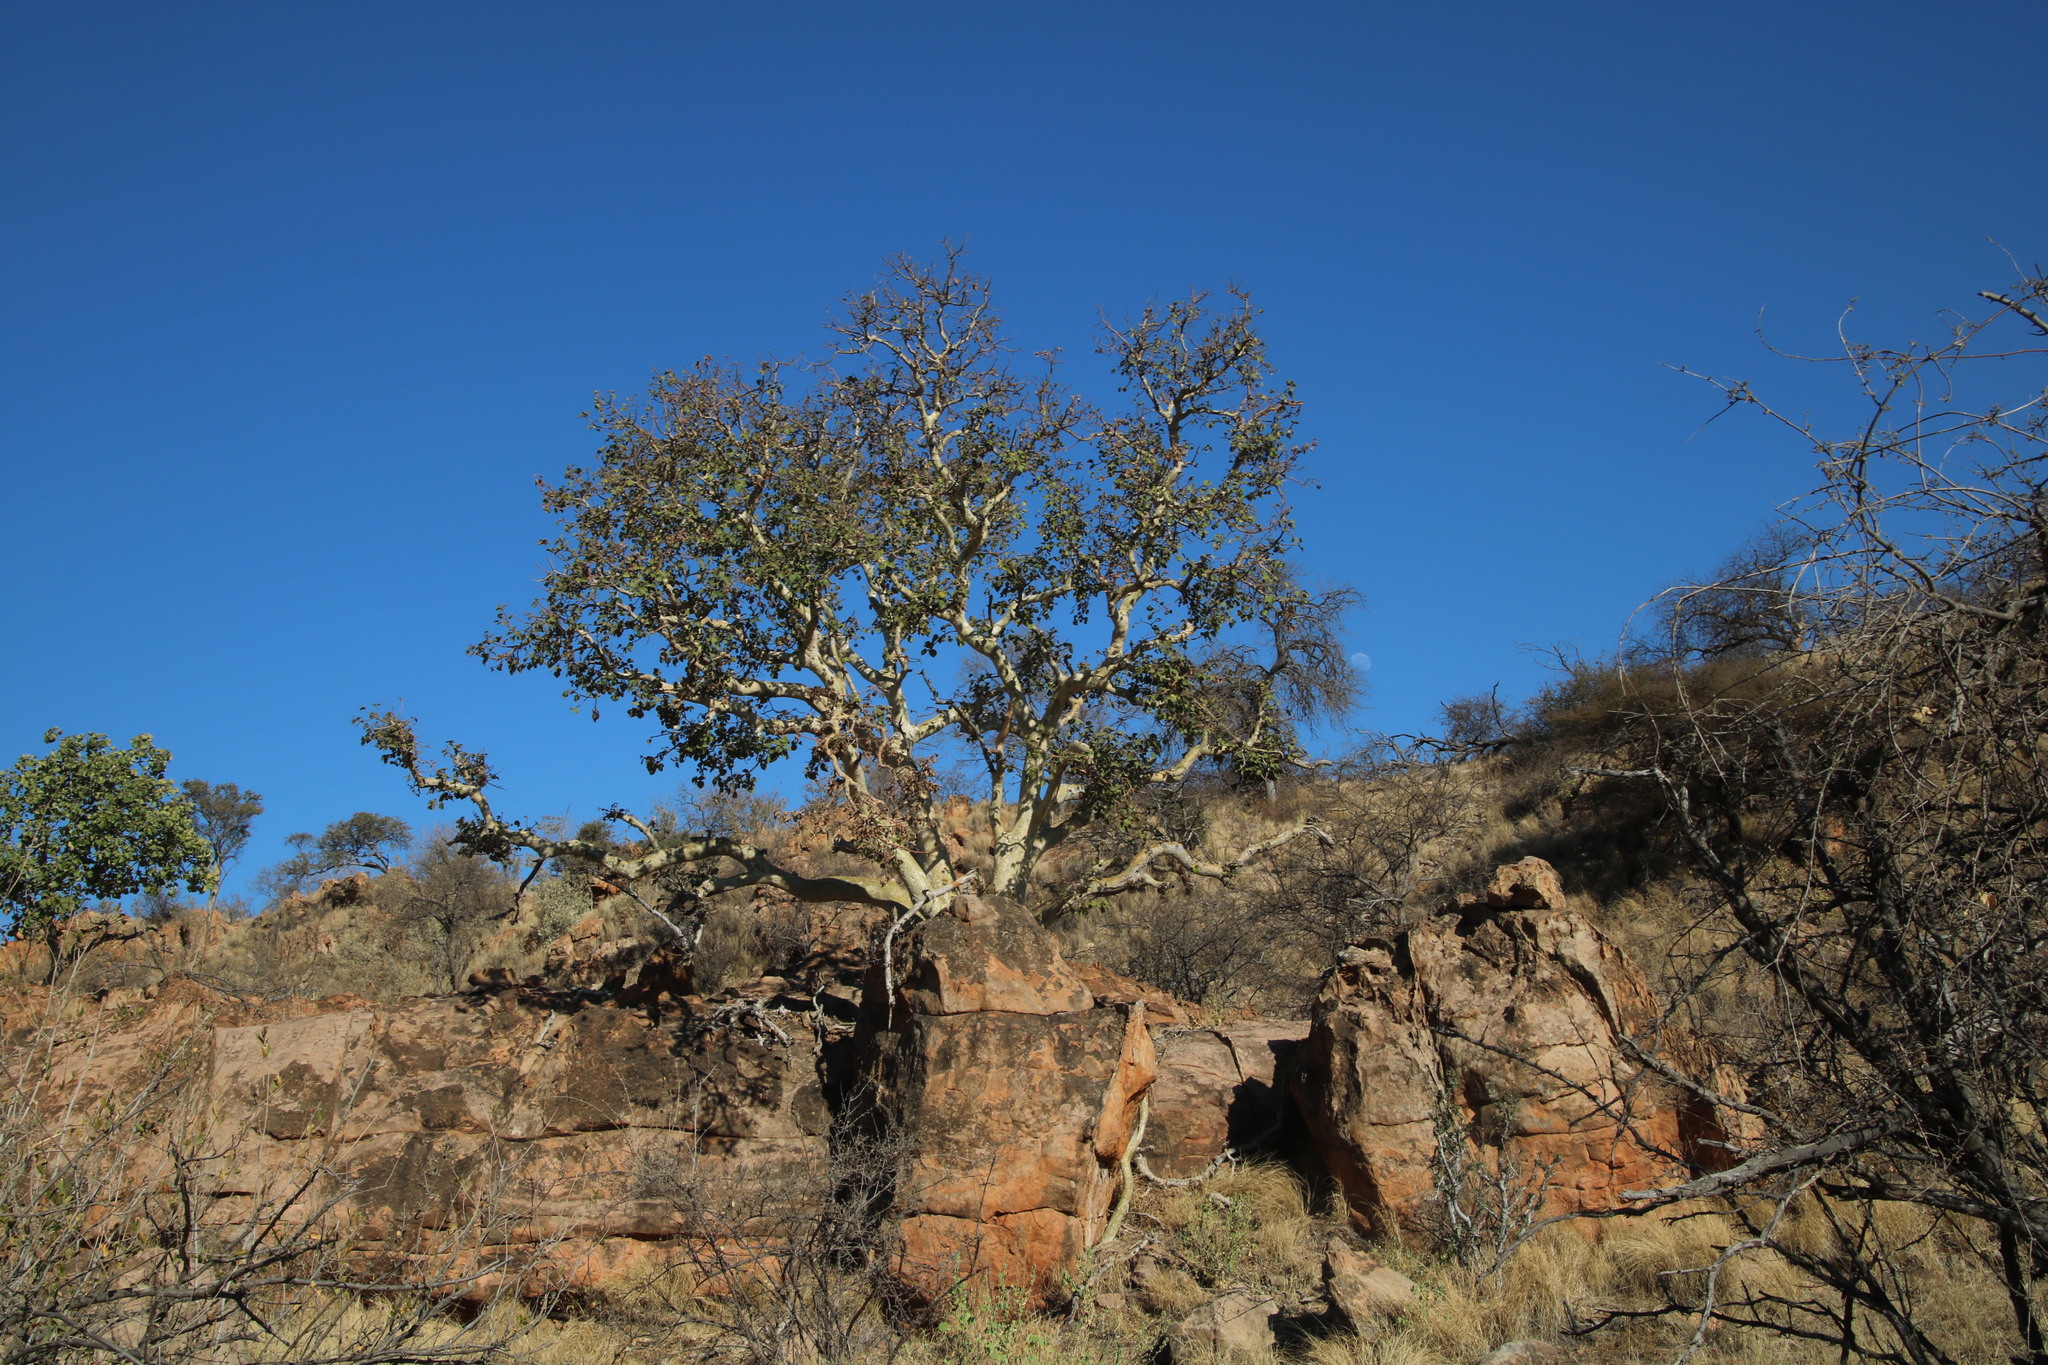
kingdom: Plantae
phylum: Tracheophyta
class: Magnoliopsida
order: Rosales
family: Moraceae
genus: Ficus
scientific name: Ficus tettensis
